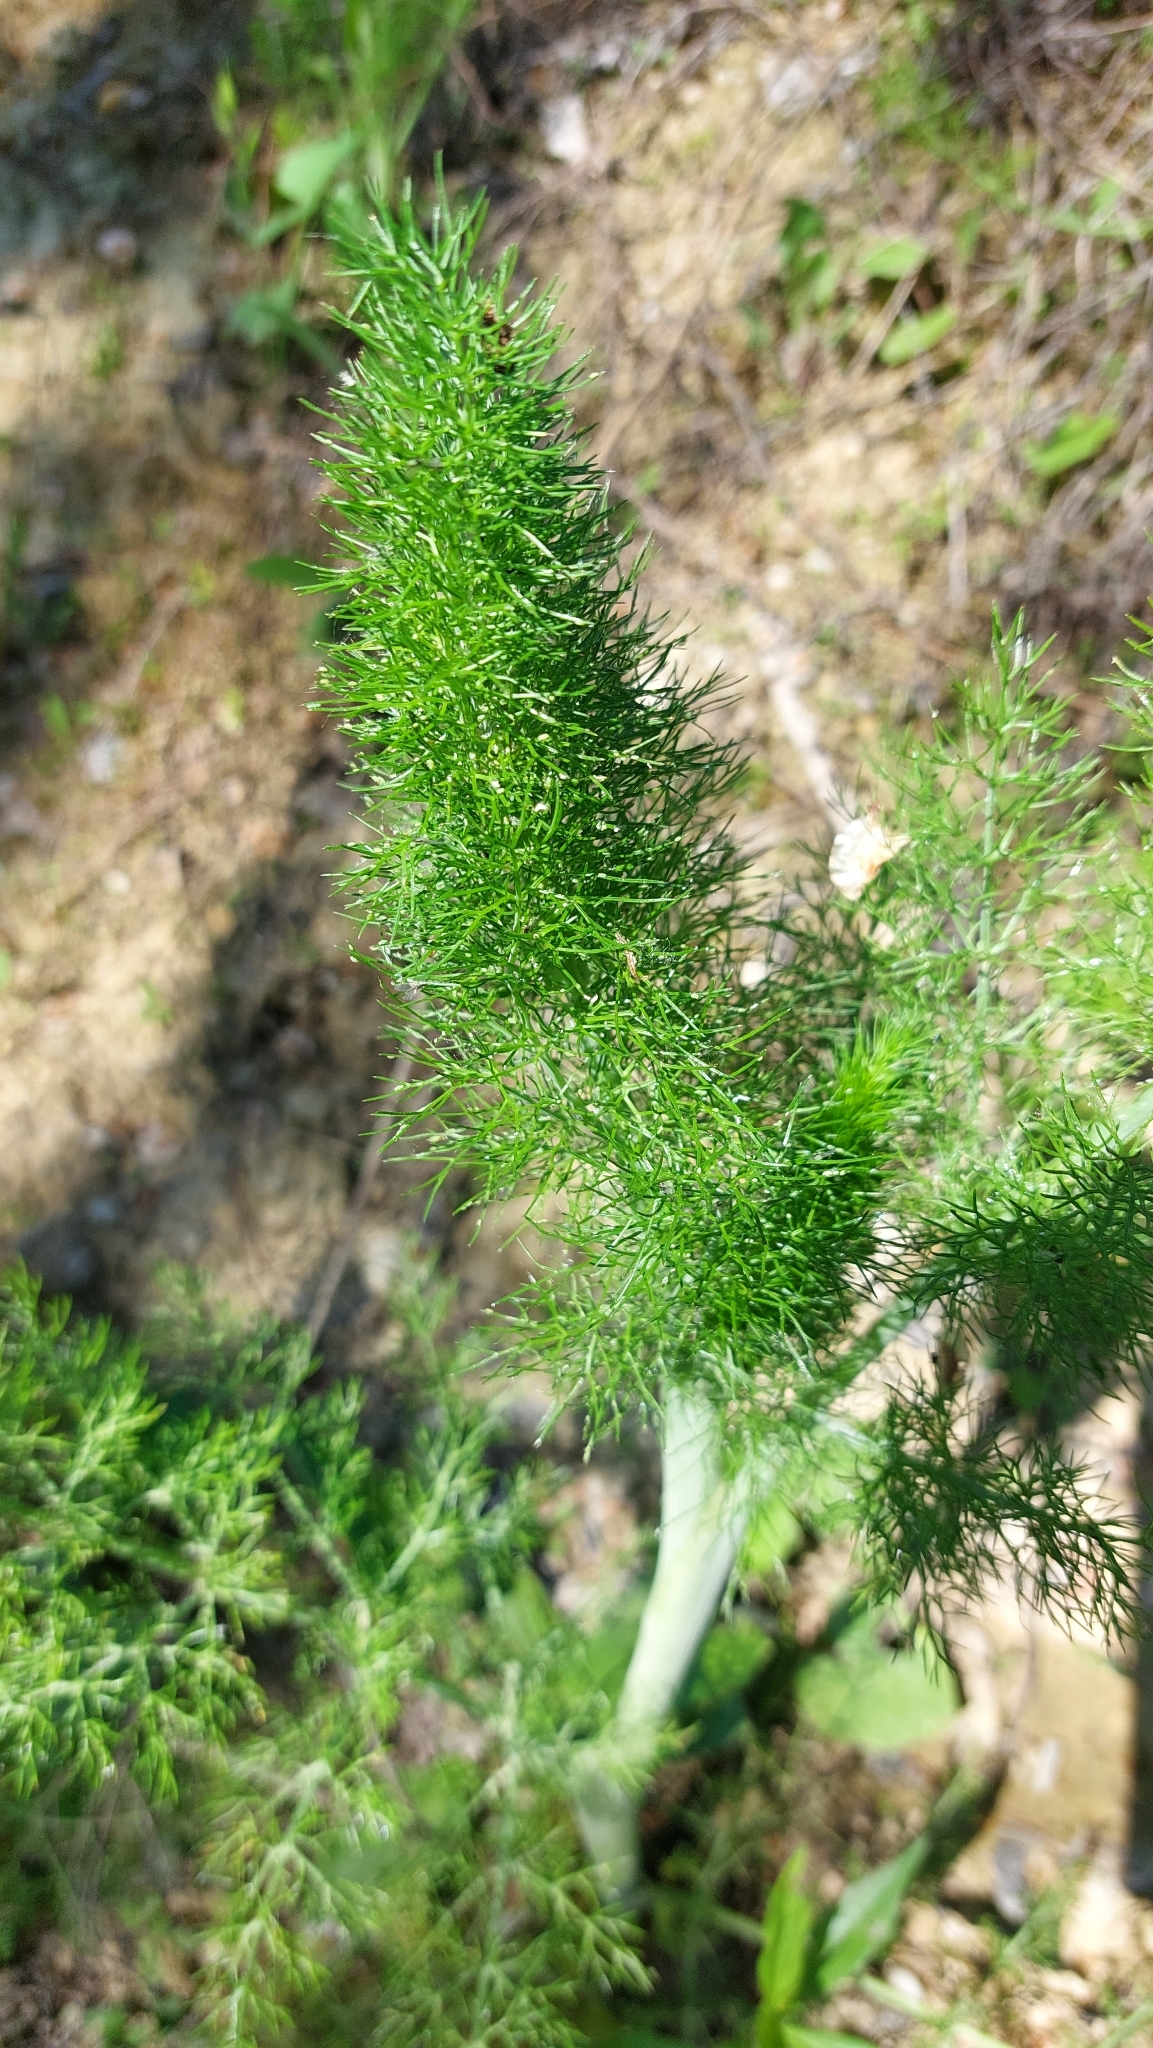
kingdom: Plantae
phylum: Tracheophyta
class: Magnoliopsida
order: Apiales
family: Apiaceae
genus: Foeniculum
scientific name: Foeniculum vulgare
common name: Fennel
